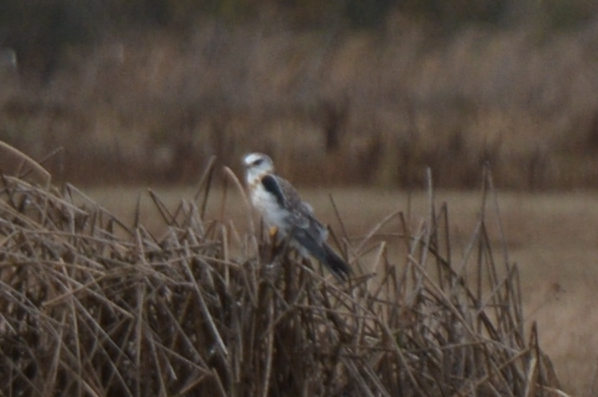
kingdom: Animalia
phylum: Chordata
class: Aves
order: Accipitriformes
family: Accipitridae
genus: Elanus
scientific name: Elanus leucurus
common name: White-tailed kite
